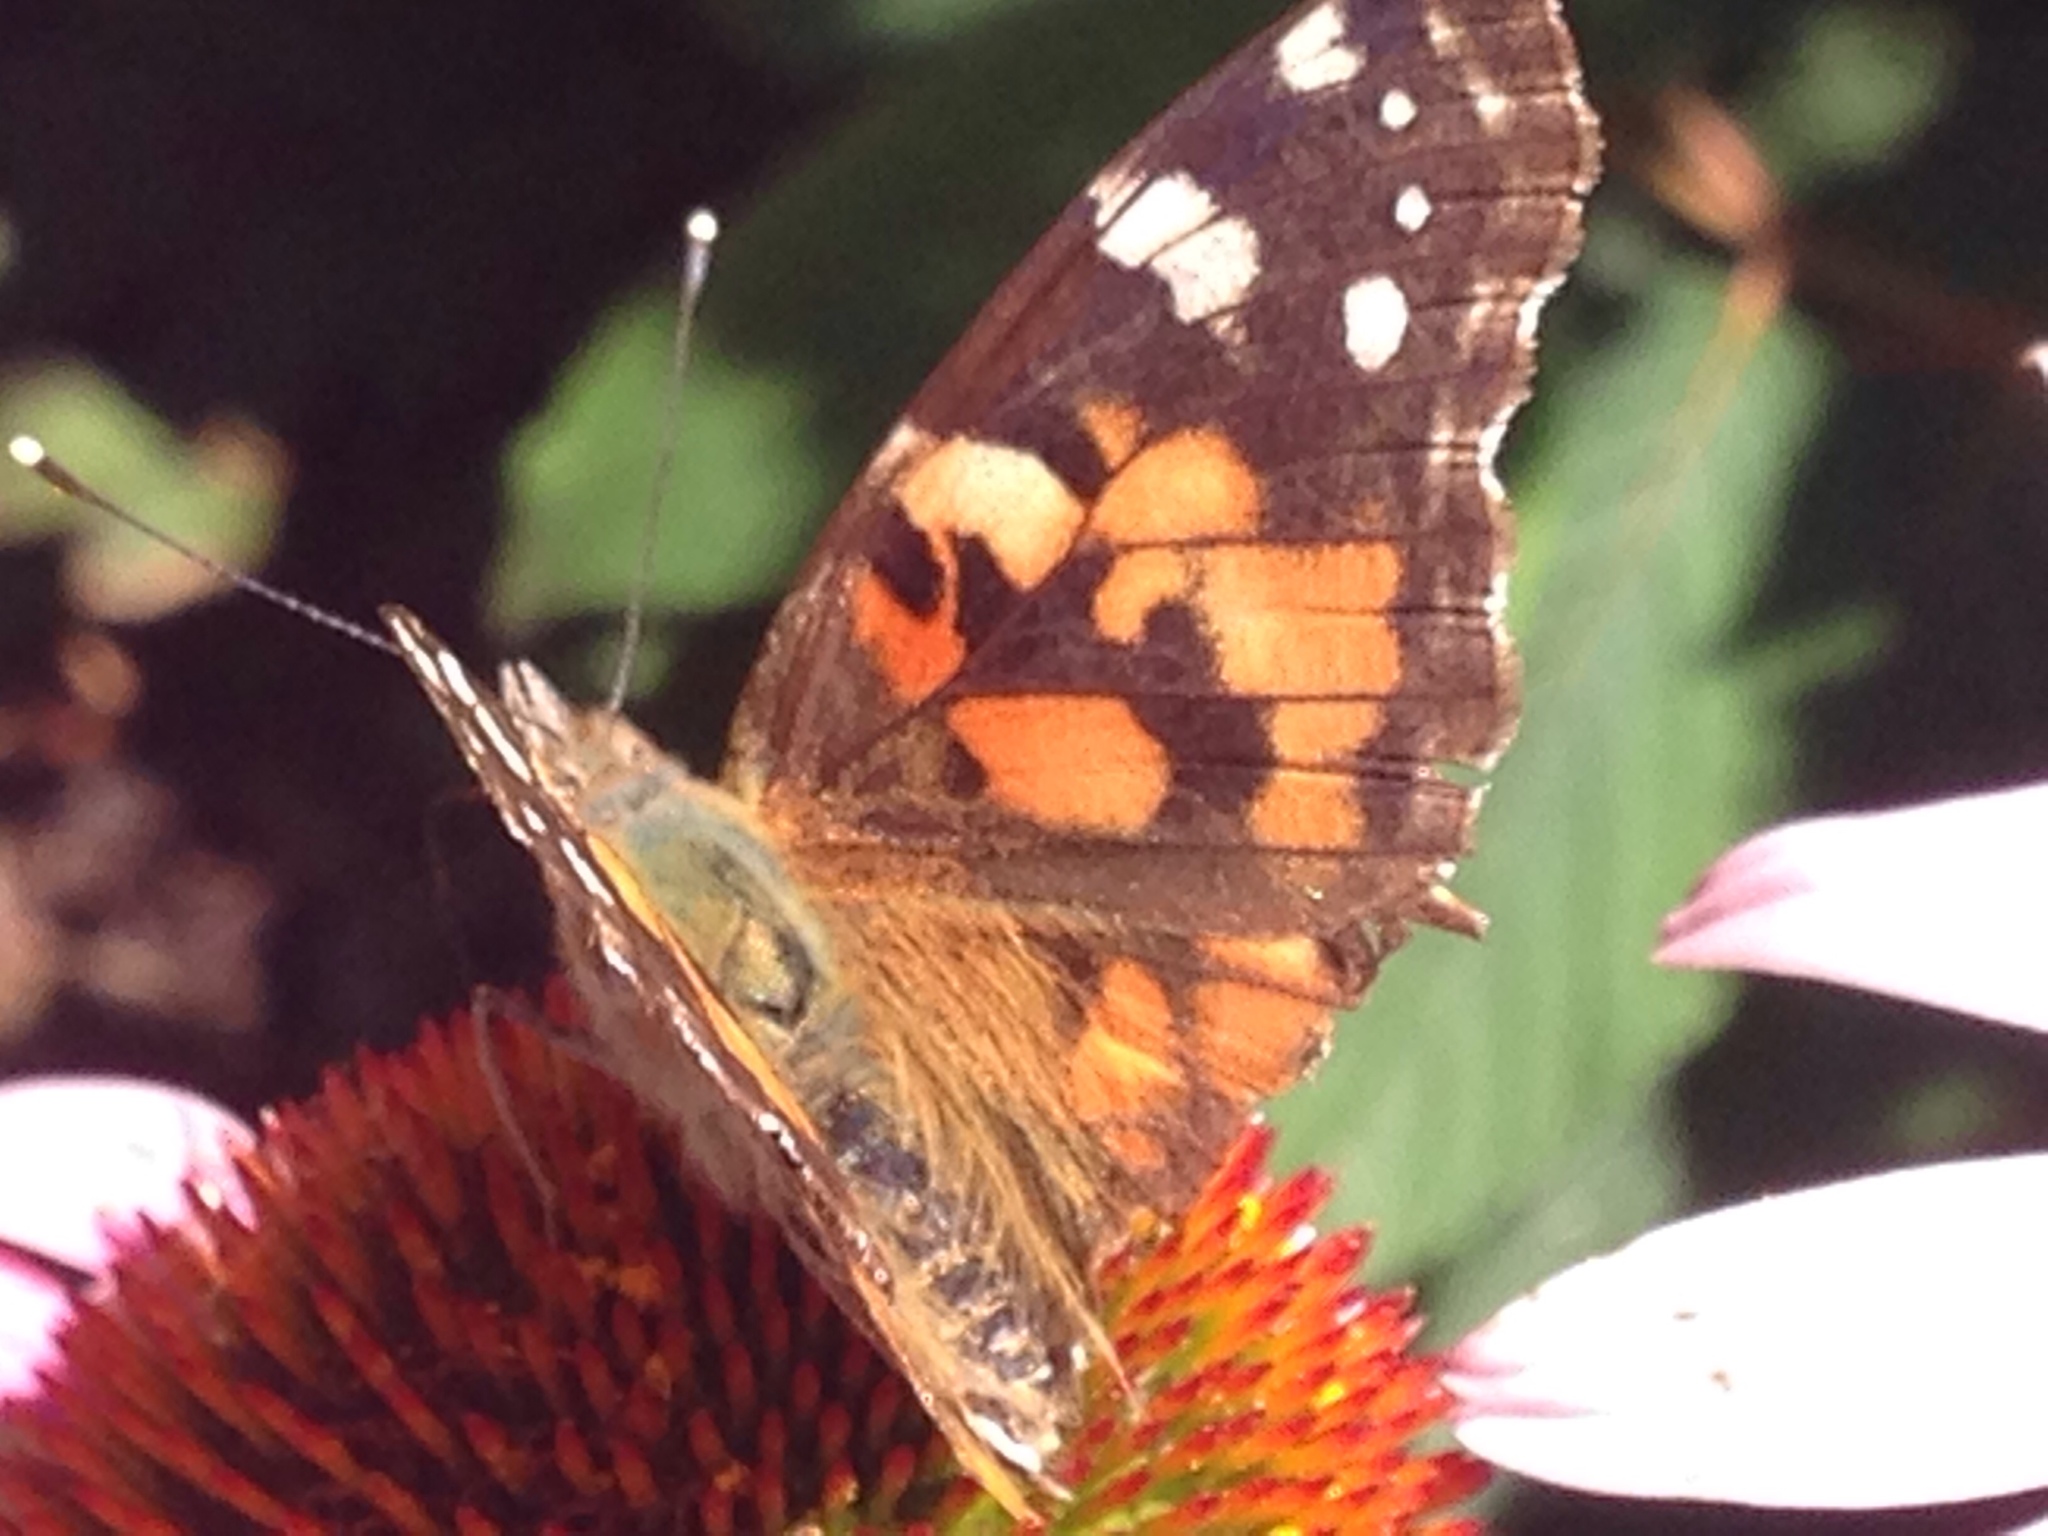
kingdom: Animalia
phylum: Arthropoda
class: Insecta
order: Lepidoptera
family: Nymphalidae
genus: Vanessa
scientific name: Vanessa cardui
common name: Painted lady
